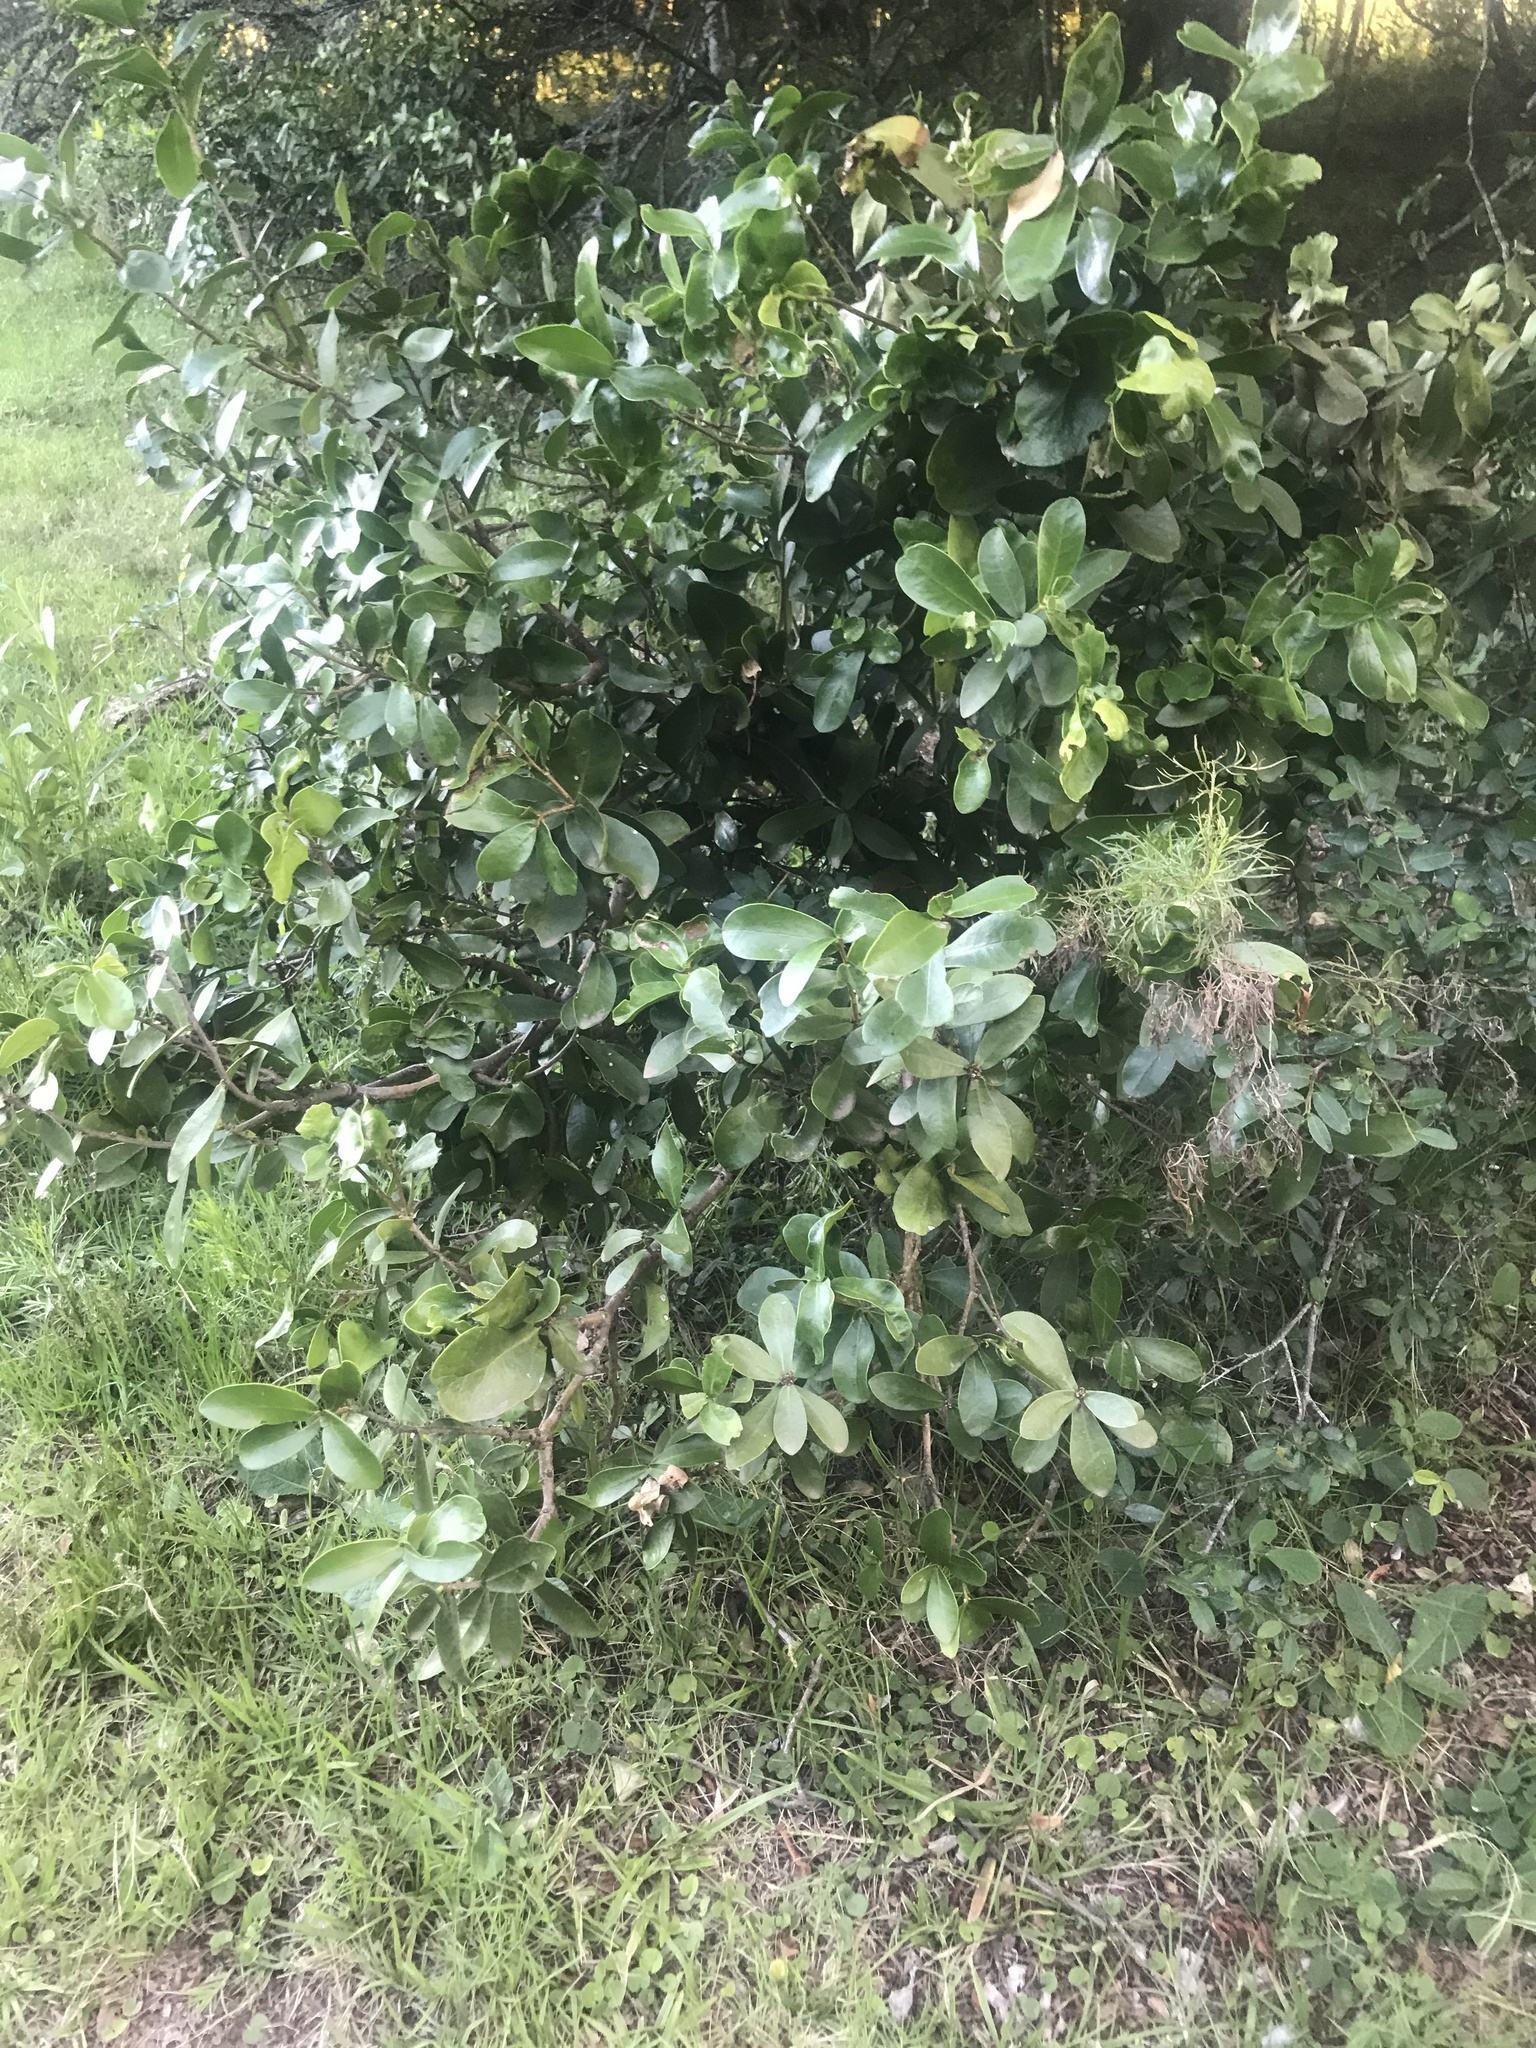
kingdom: Plantae
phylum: Tracheophyta
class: Magnoliopsida
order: Malvales
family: Thymelaeaceae
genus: Daphnopsis
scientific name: Daphnopsis racemosa
